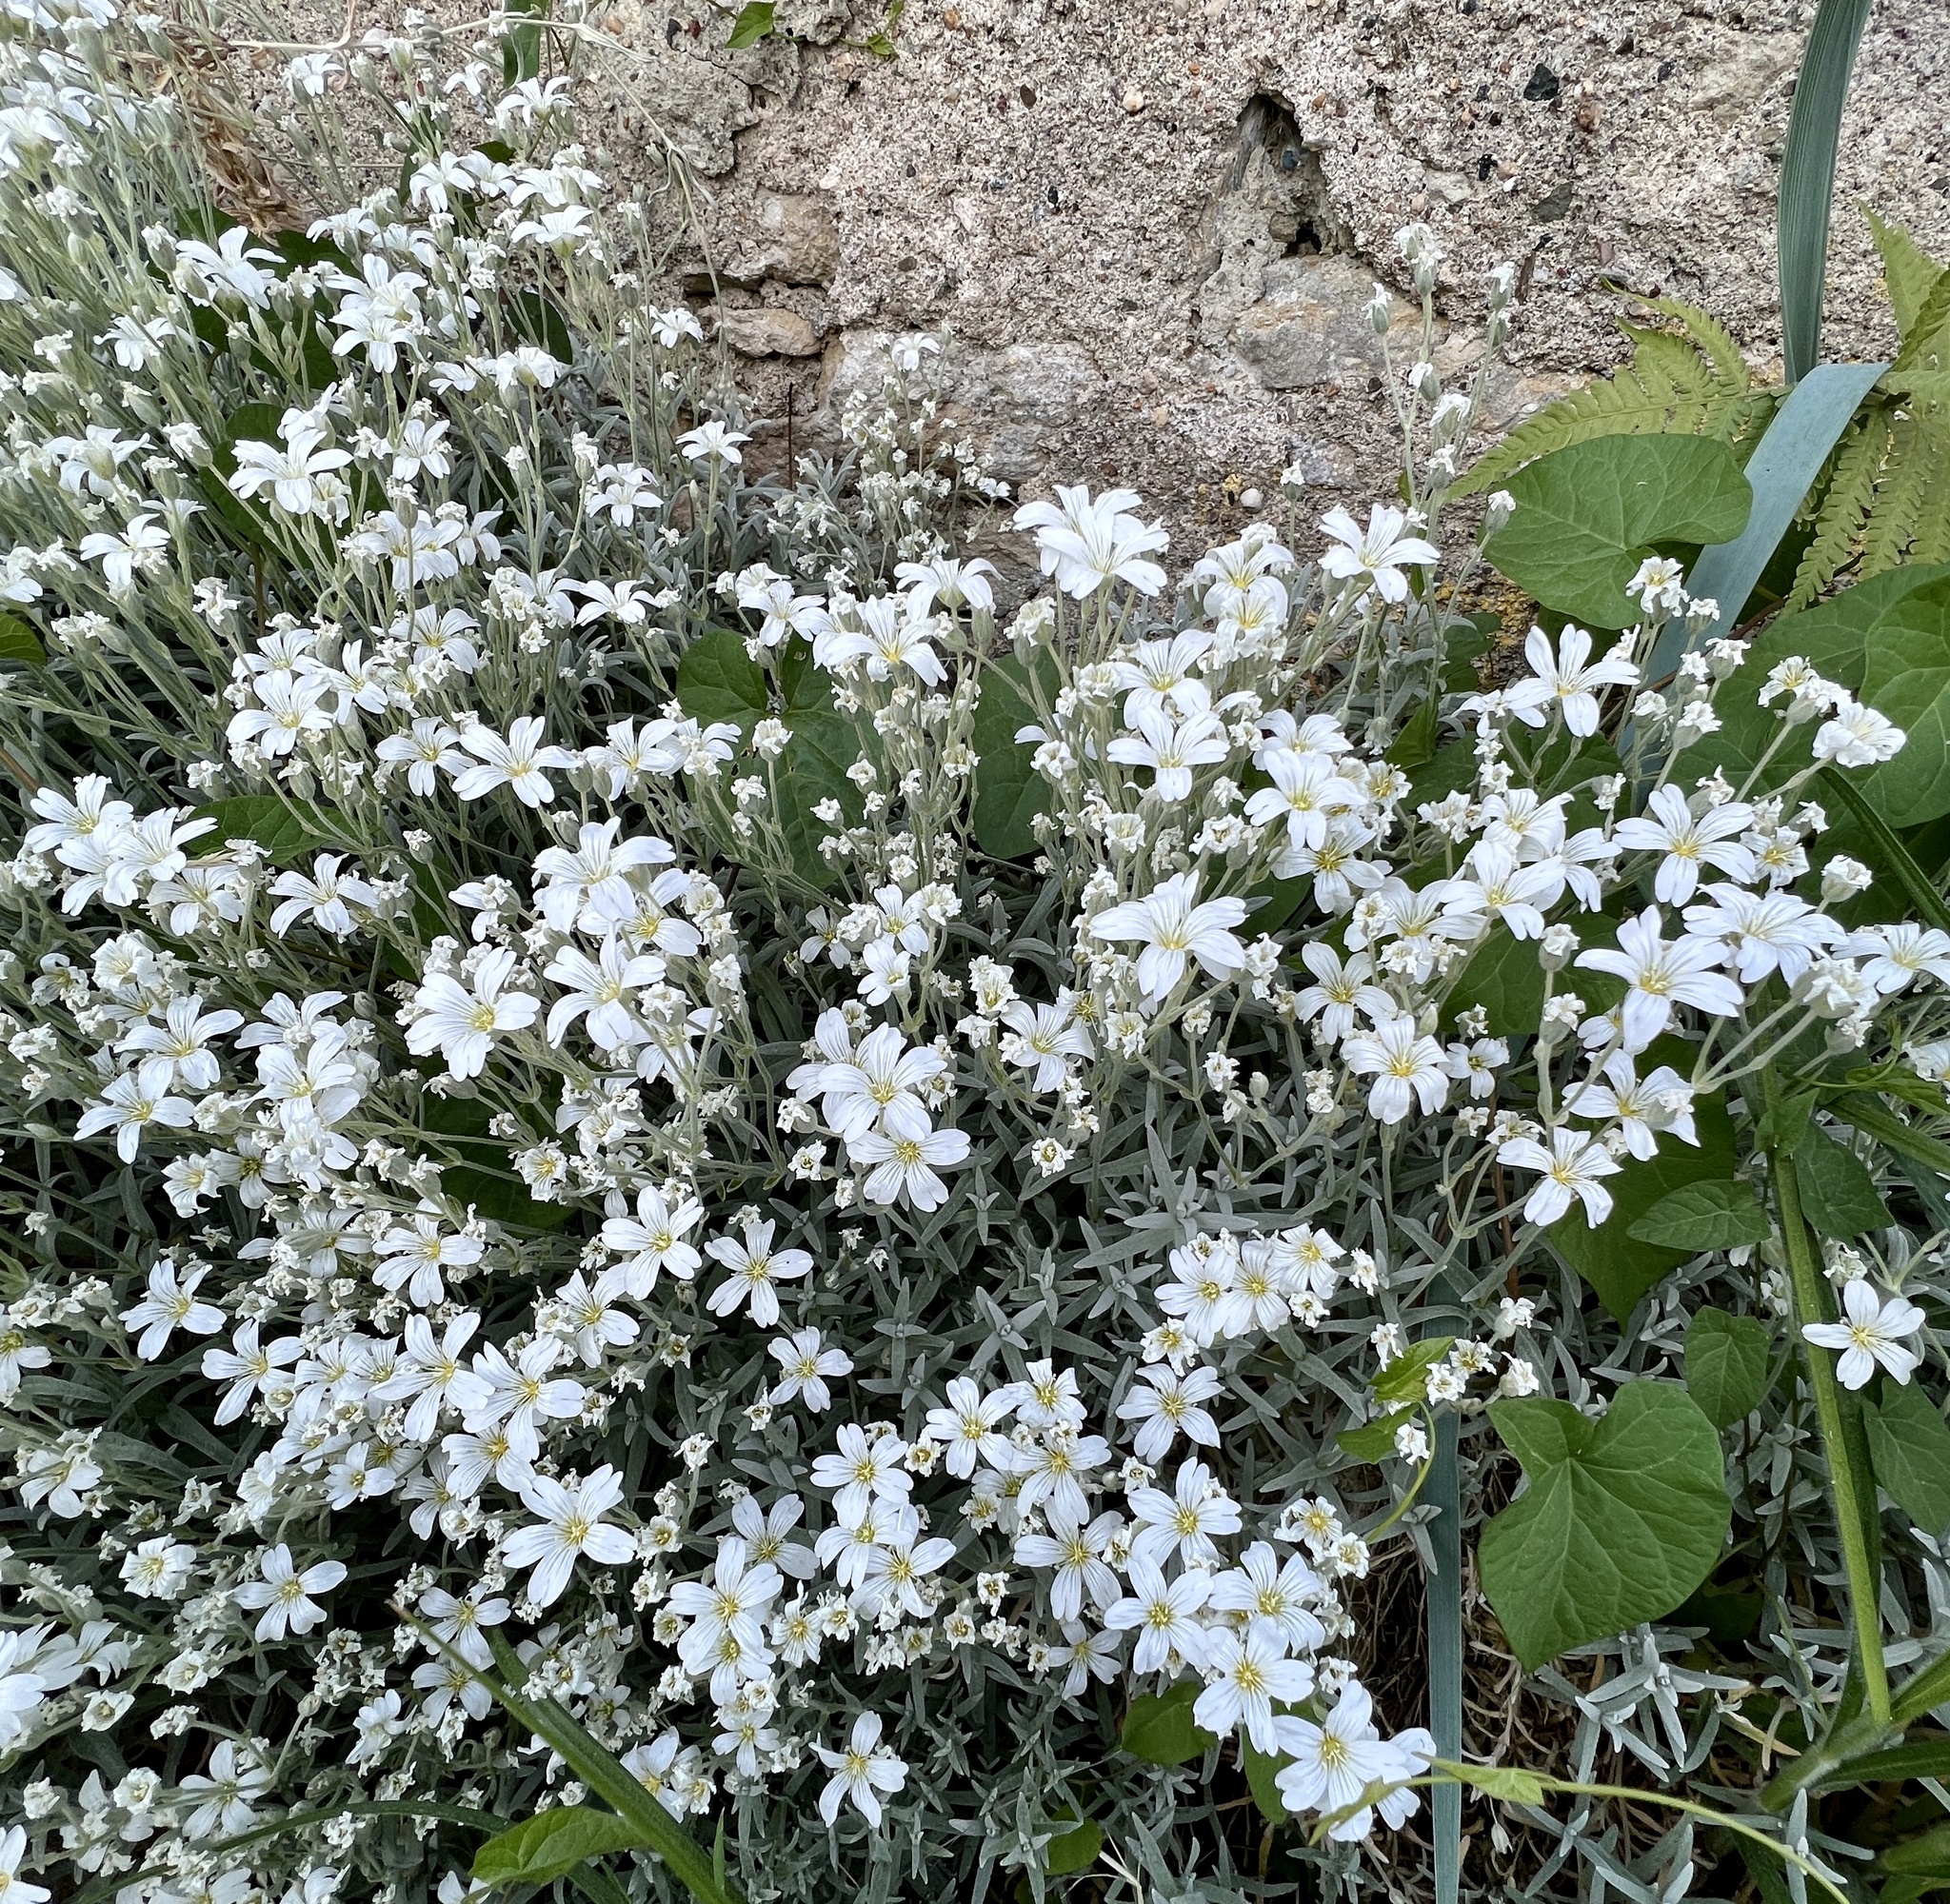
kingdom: Plantae
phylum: Tracheophyta
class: Magnoliopsida
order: Caryophyllales
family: Caryophyllaceae
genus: Cerastium
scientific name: Cerastium tomentosum
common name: Snow-in-summer
